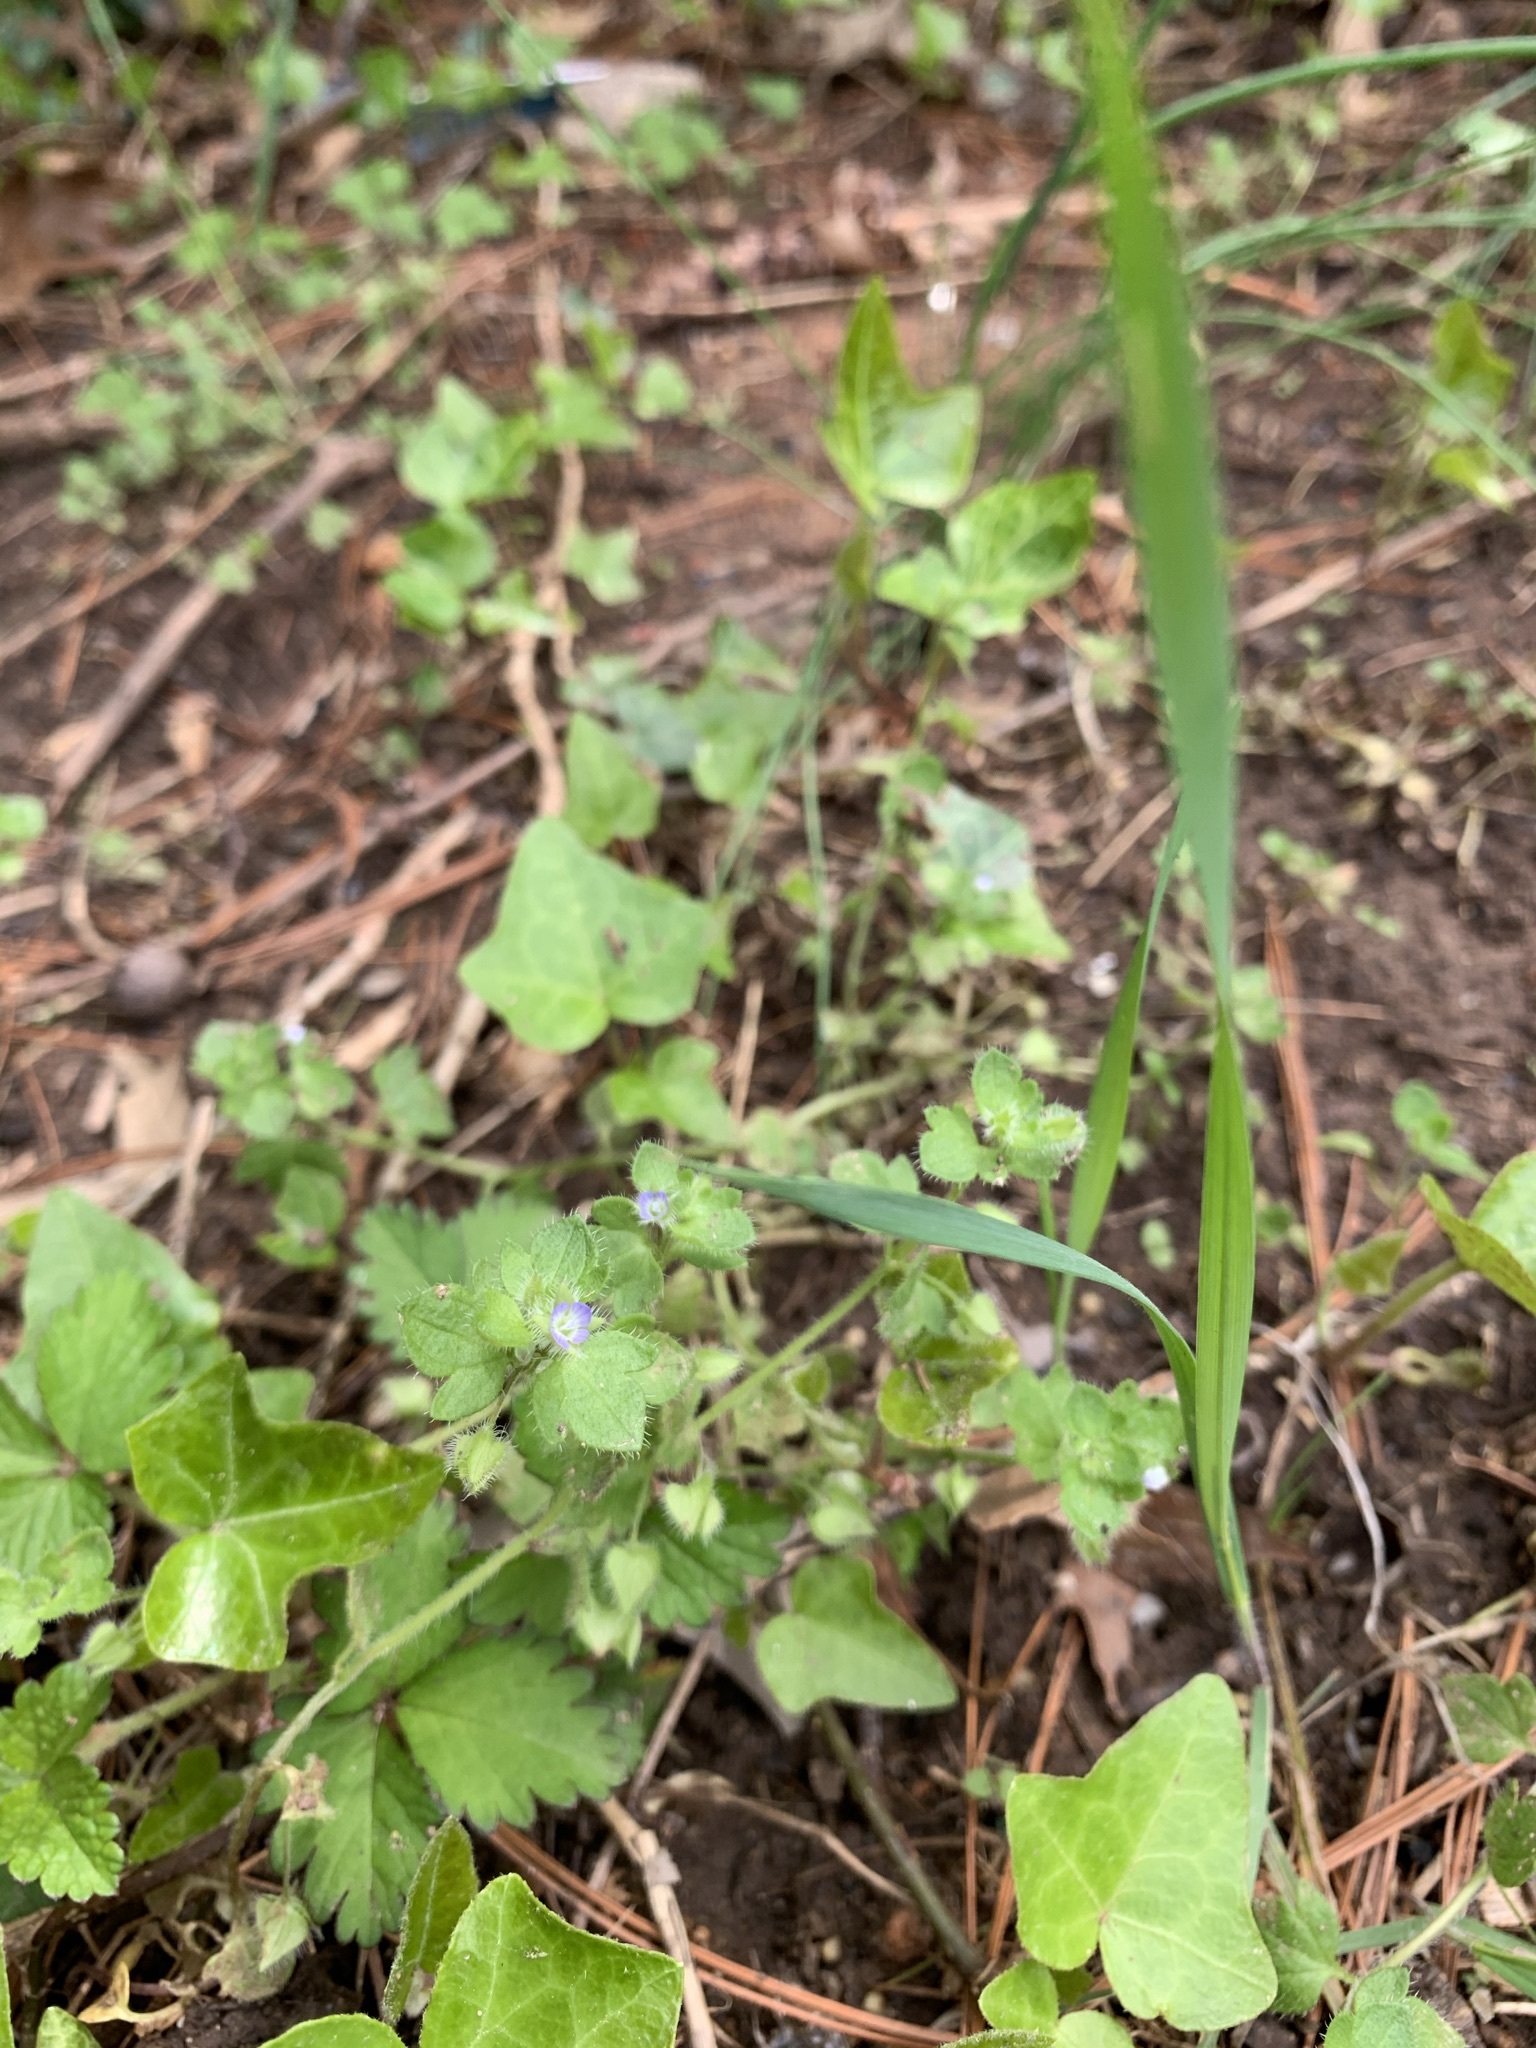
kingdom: Plantae
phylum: Tracheophyta
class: Magnoliopsida
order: Lamiales
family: Plantaginaceae
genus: Veronica
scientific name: Veronica hederifolia
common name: Ivy-leaved speedwell
